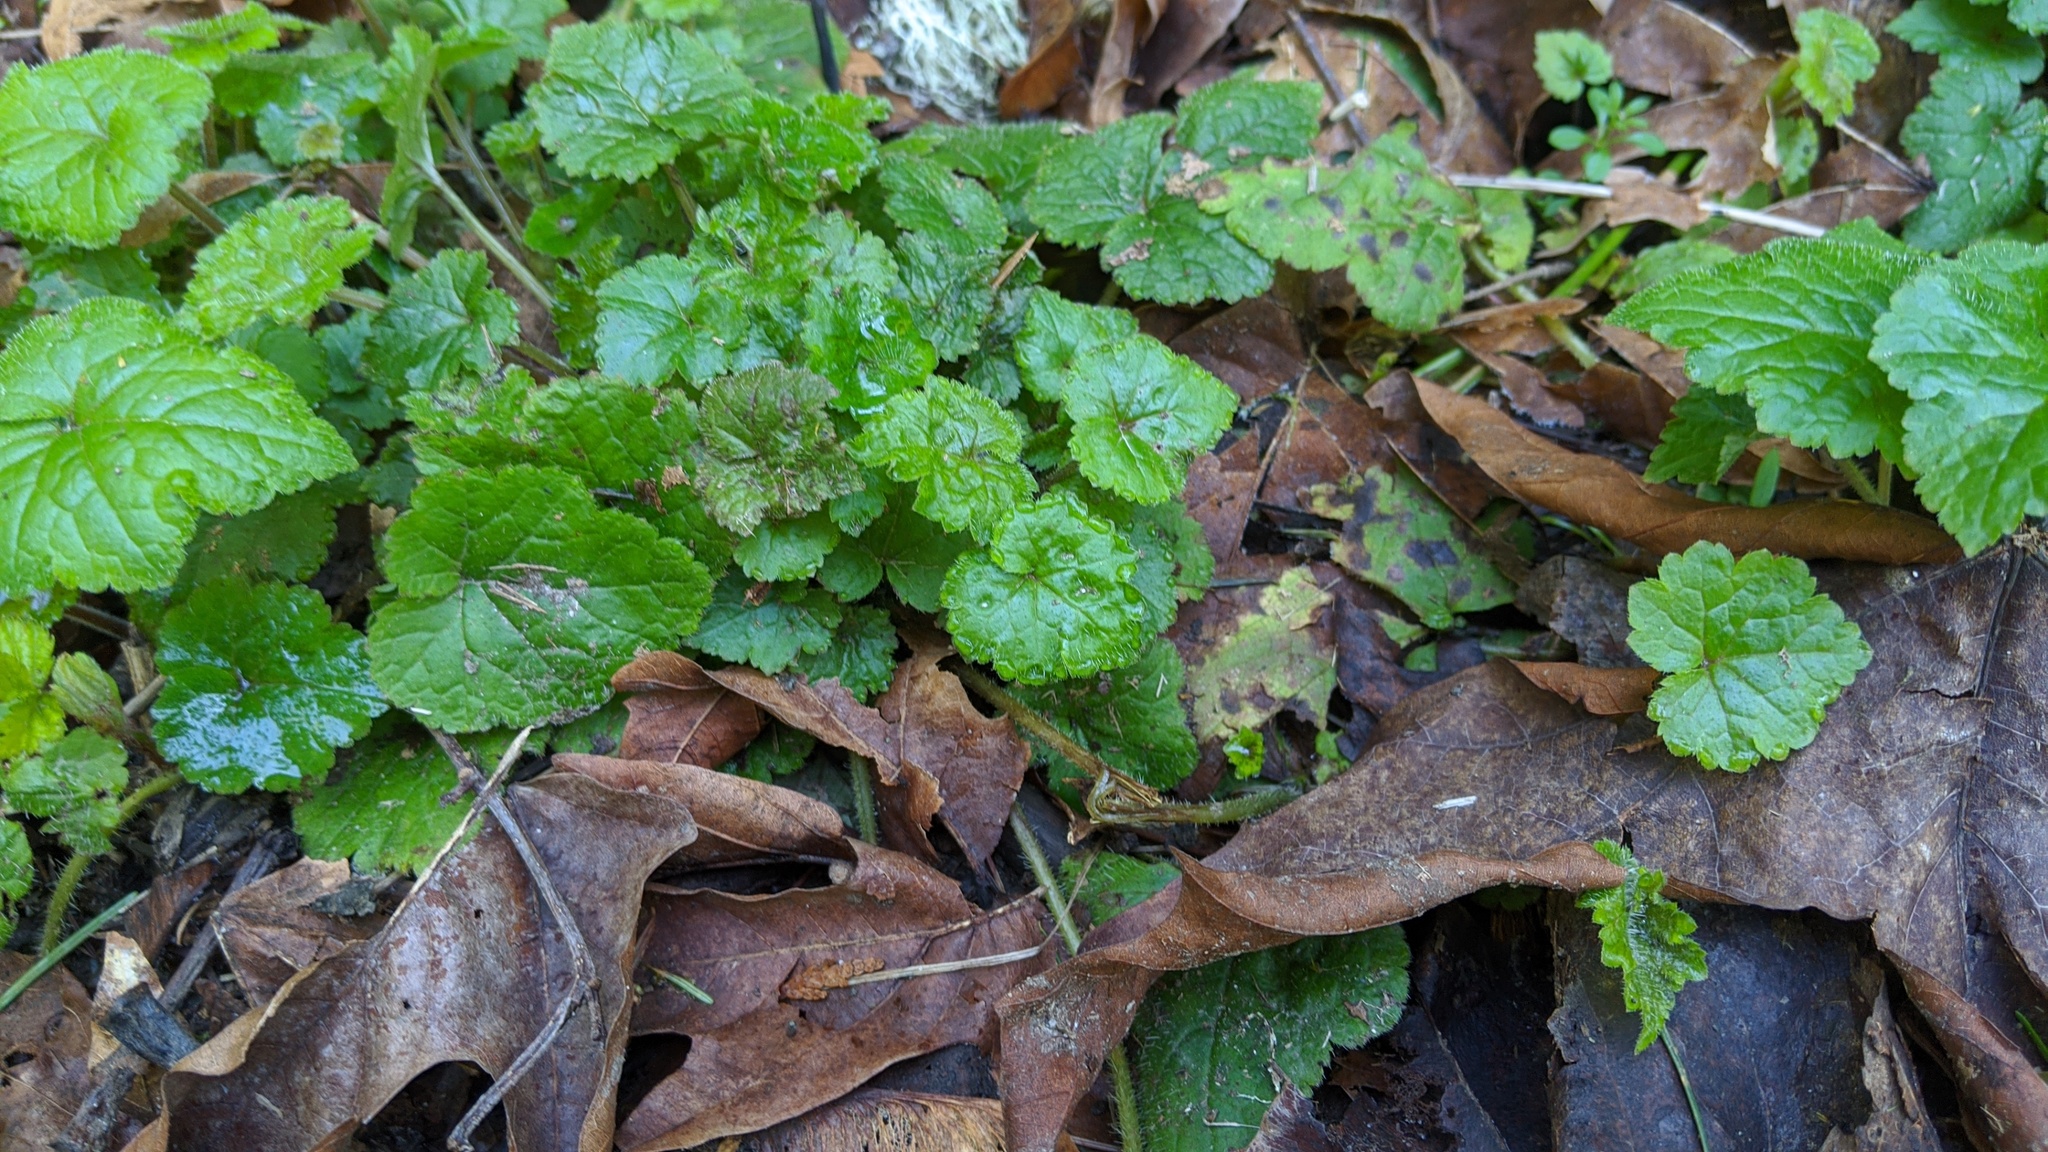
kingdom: Plantae
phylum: Tracheophyta
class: Magnoliopsida
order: Saxifragales
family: Saxifragaceae
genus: Tellima
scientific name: Tellima grandiflora
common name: Fringecups
